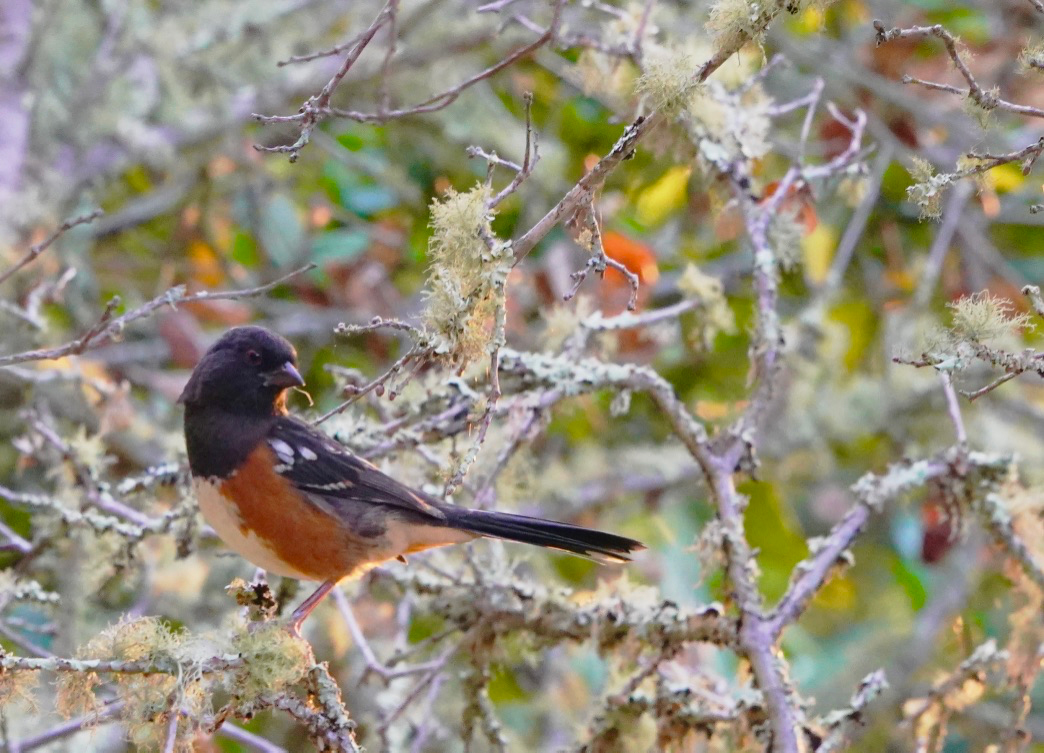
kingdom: Animalia
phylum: Chordata
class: Aves
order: Passeriformes
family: Passerellidae
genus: Pipilo
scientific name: Pipilo maculatus
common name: Spotted towhee
